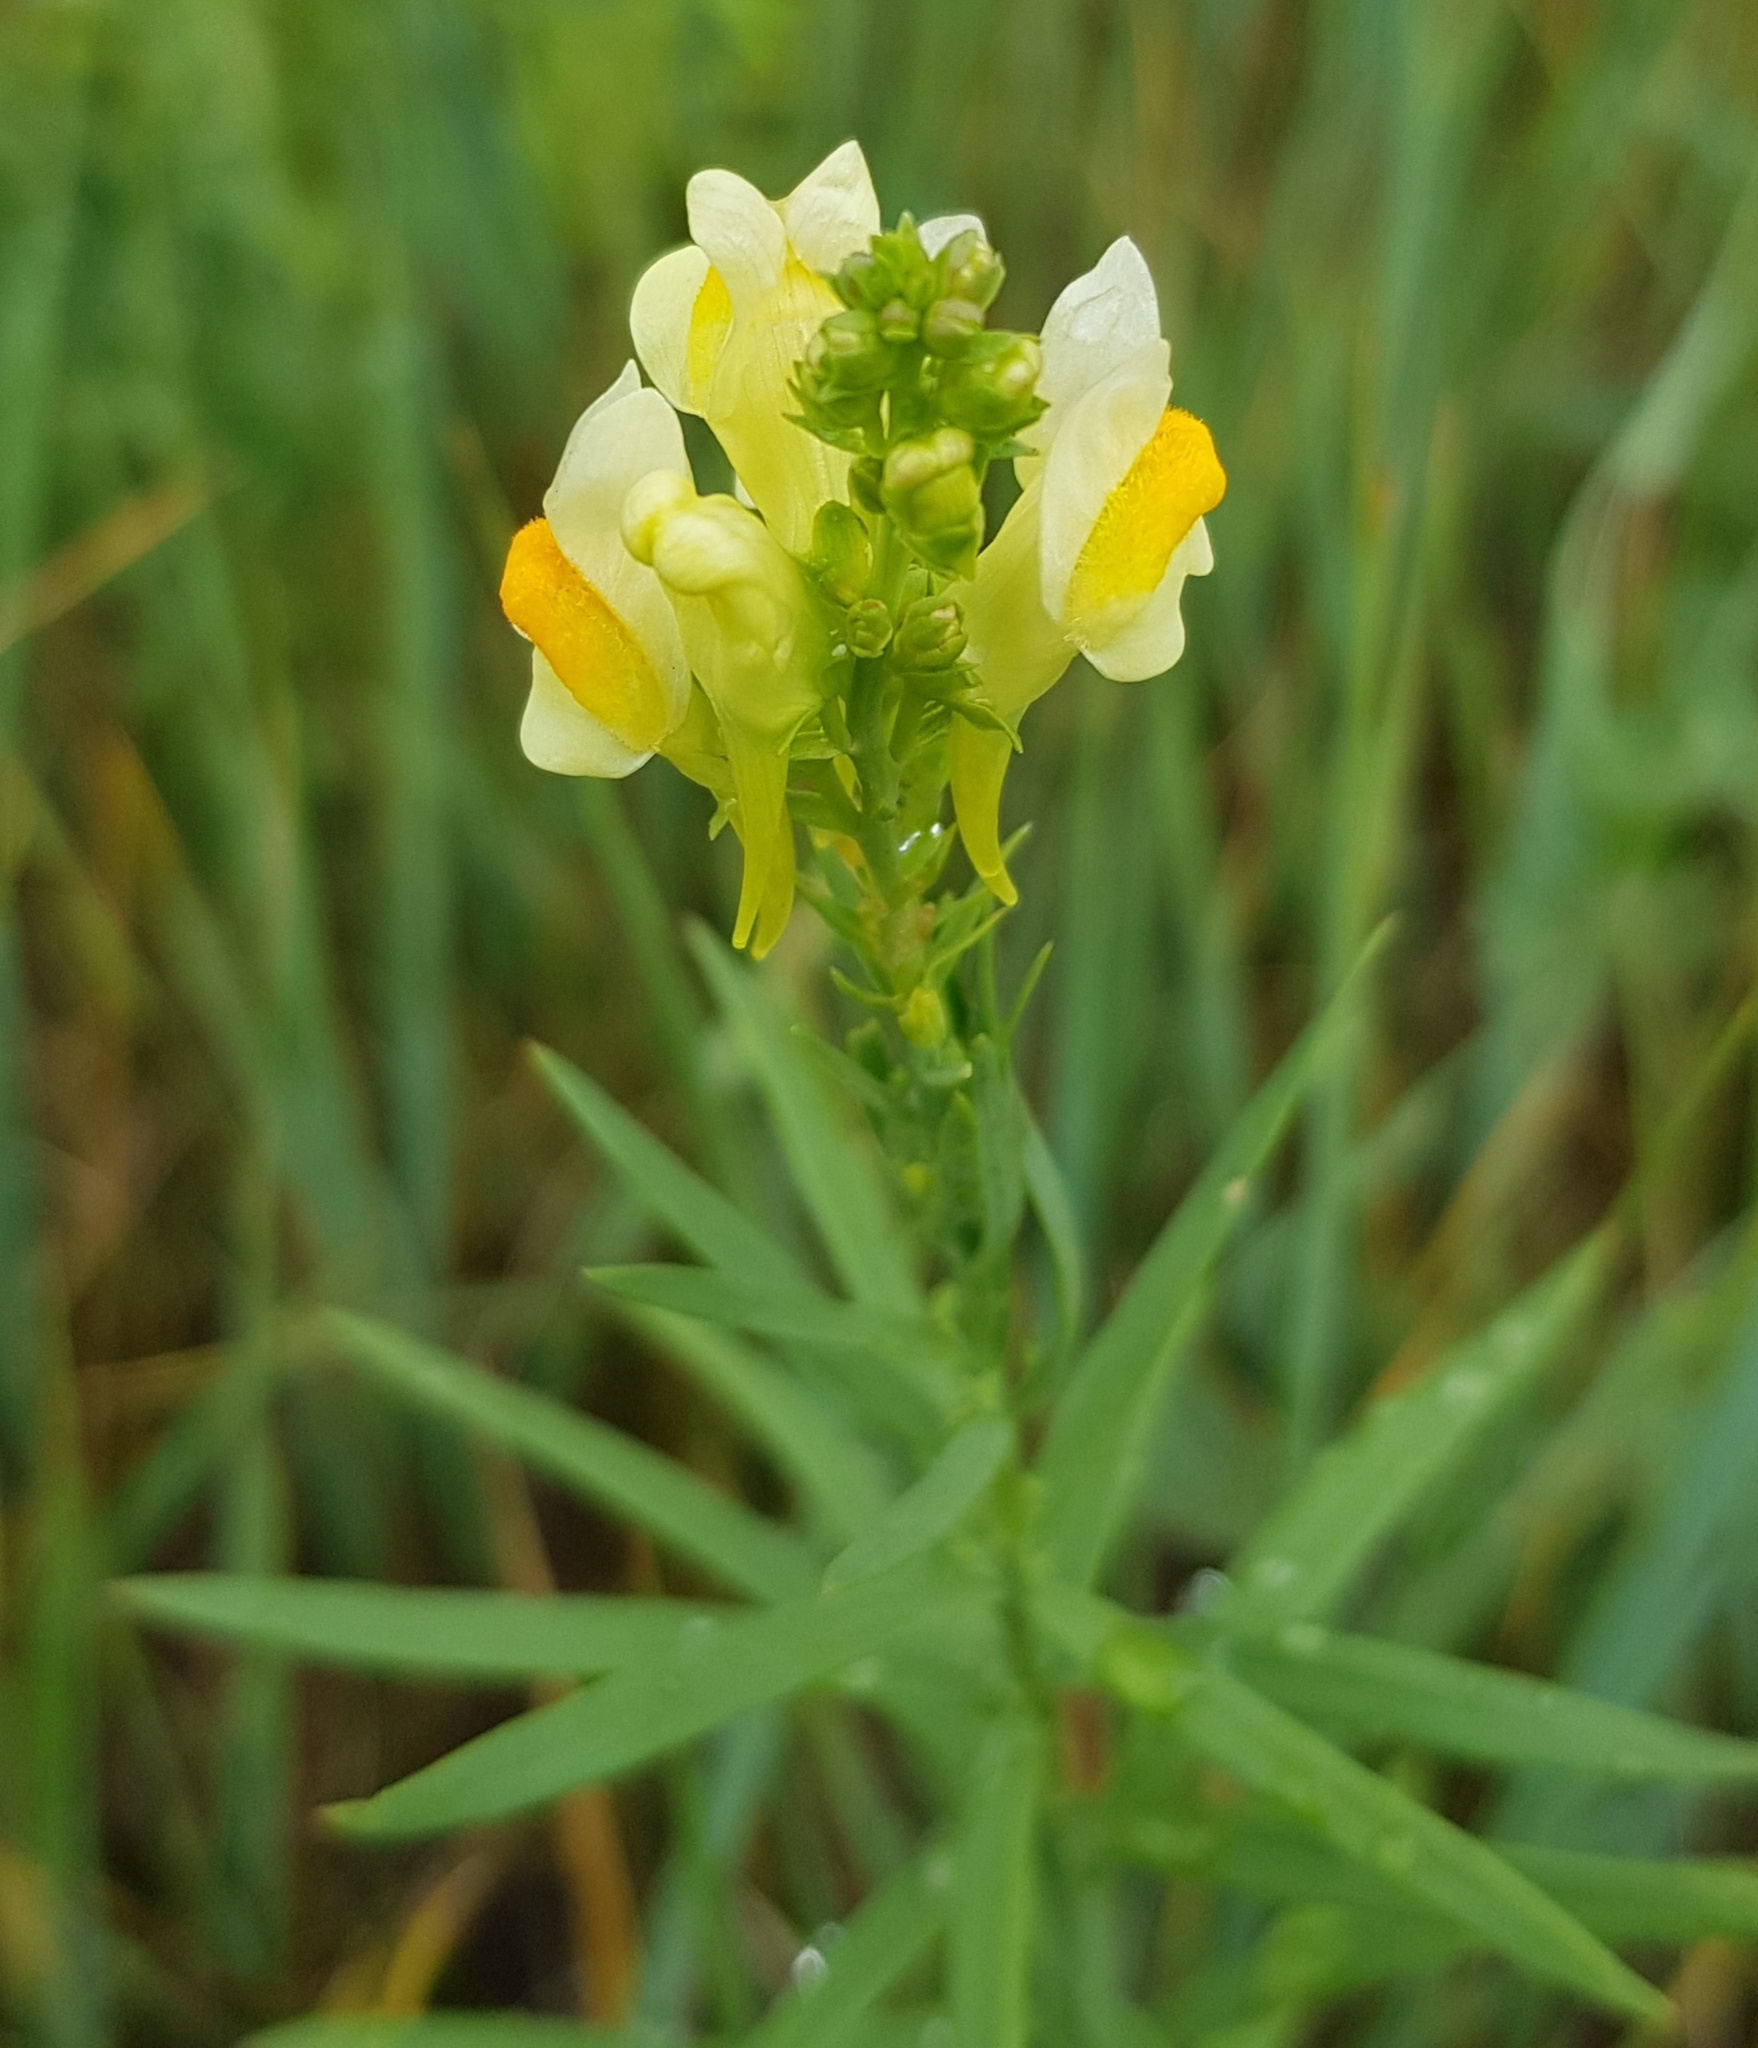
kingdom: Plantae
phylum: Tracheophyta
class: Magnoliopsida
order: Lamiales
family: Plantaginaceae
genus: Linaria
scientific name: Linaria buriatica
